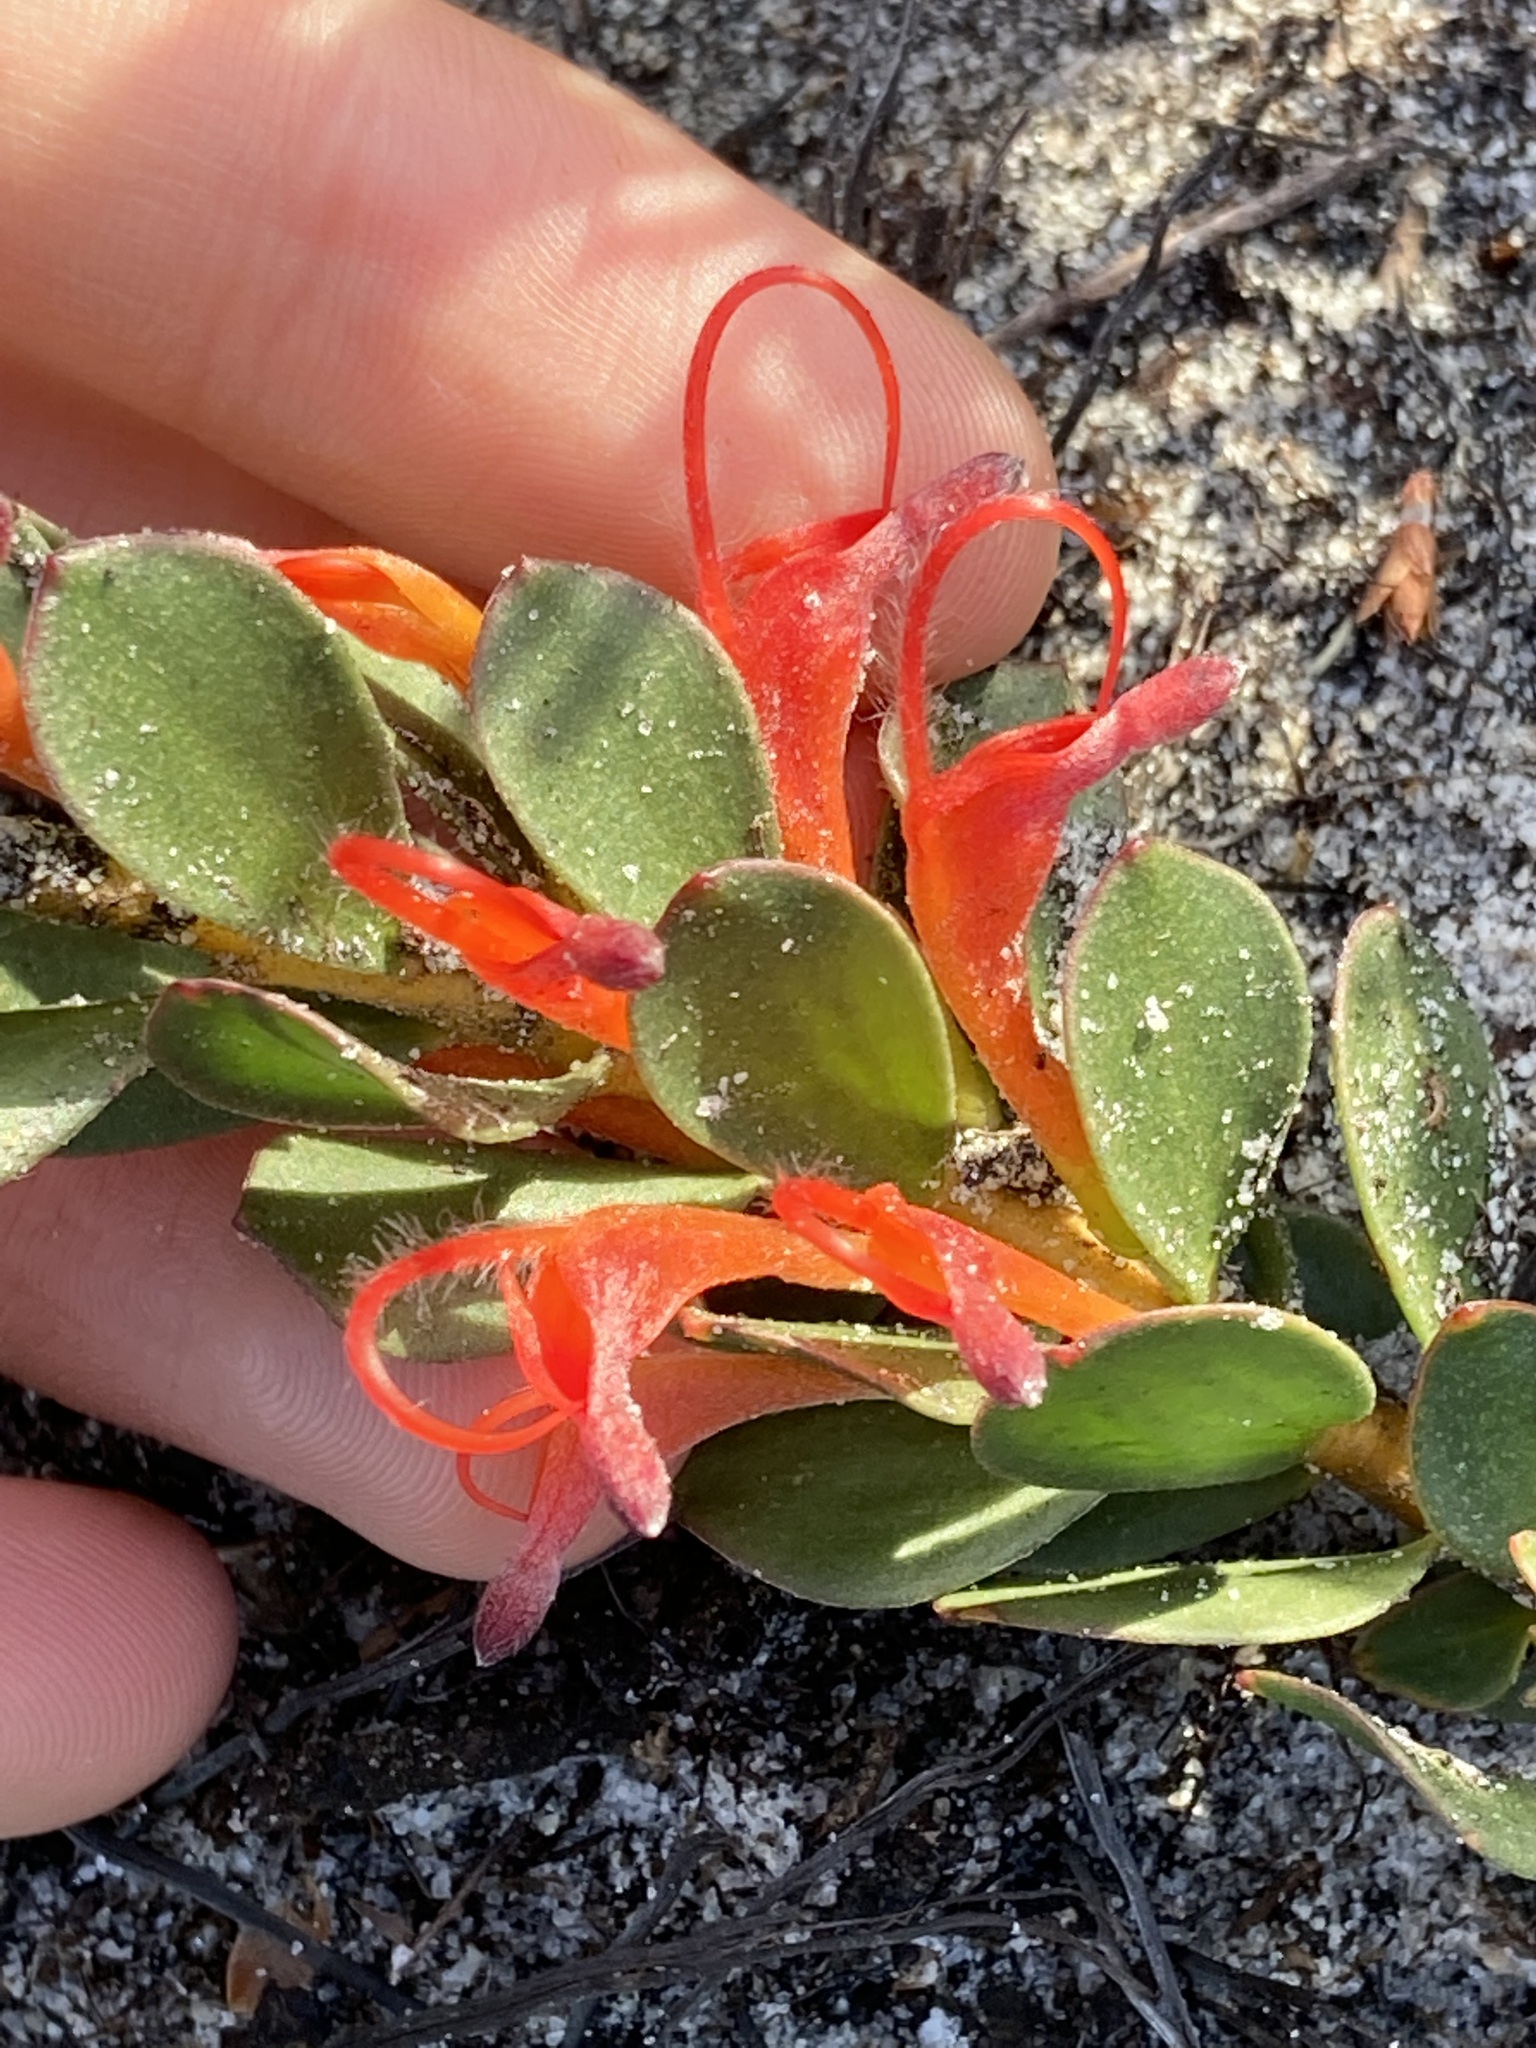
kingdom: Plantae
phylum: Tracheophyta
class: Magnoliopsida
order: Proteales
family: Proteaceae
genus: Adenanthos
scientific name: Adenanthos obovatus
